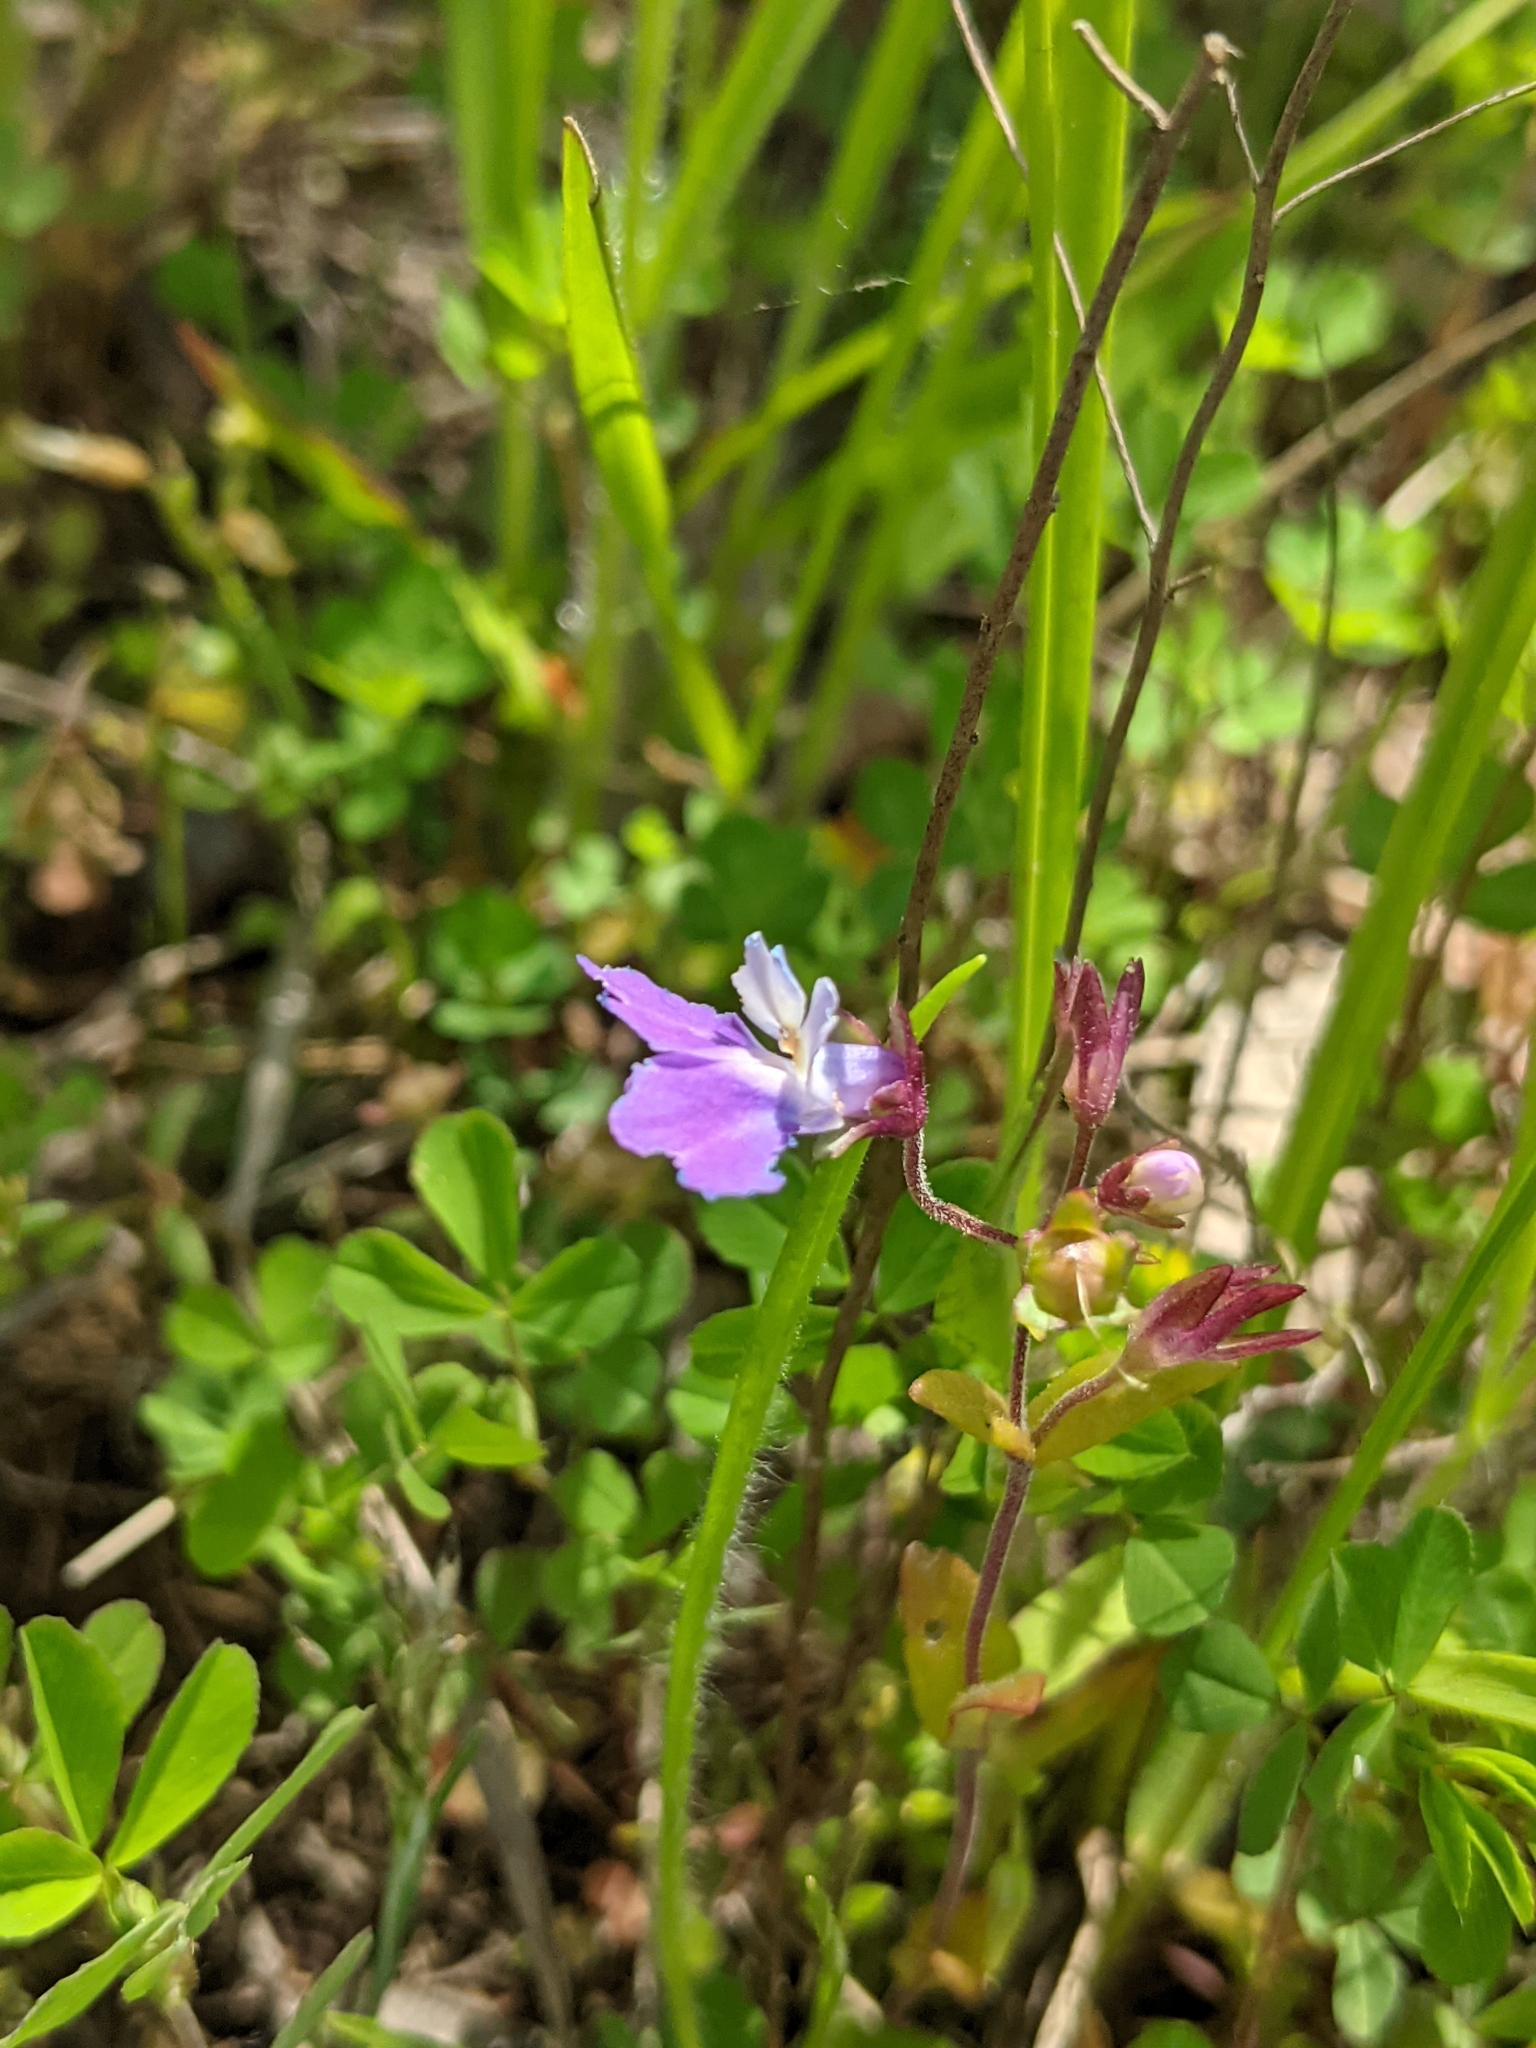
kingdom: Plantae
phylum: Tracheophyta
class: Magnoliopsida
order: Lamiales
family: Plantaginaceae
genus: Collinsia
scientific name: Collinsia violacea
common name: Violet collinsia
